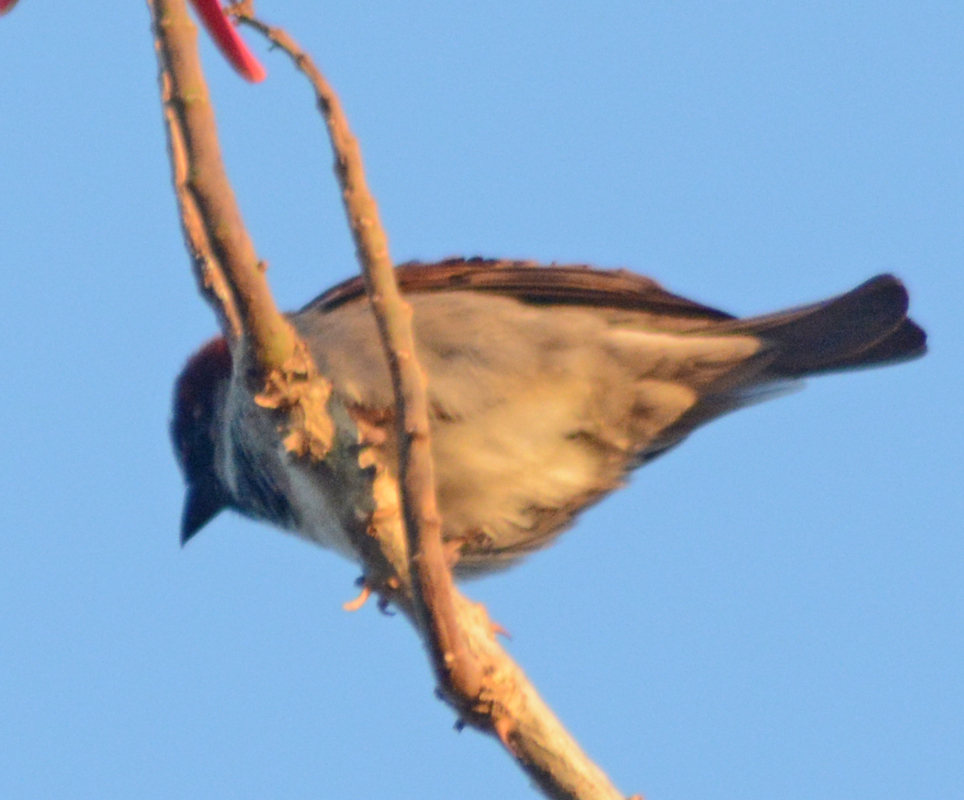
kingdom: Animalia
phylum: Chordata
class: Aves
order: Passeriformes
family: Passeridae
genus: Passer
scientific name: Passer domesticus
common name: House sparrow
